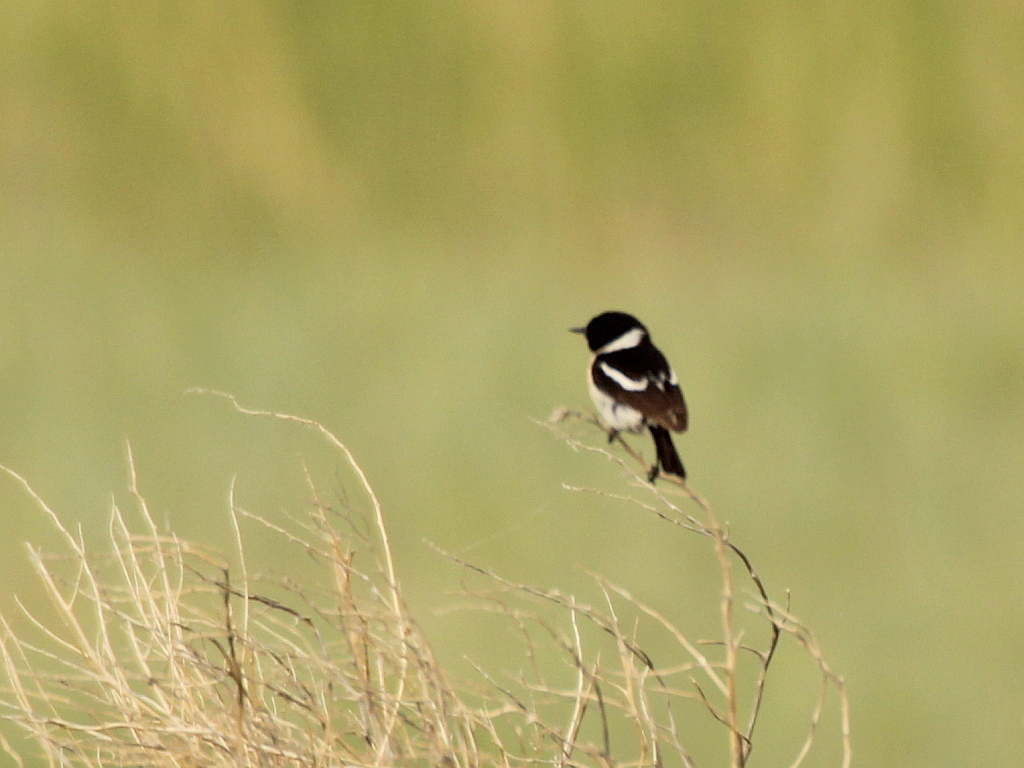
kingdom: Animalia
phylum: Chordata
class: Aves
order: Passeriformes
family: Muscicapidae
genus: Saxicola
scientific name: Saxicola maurus
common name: Siberian stonechat
